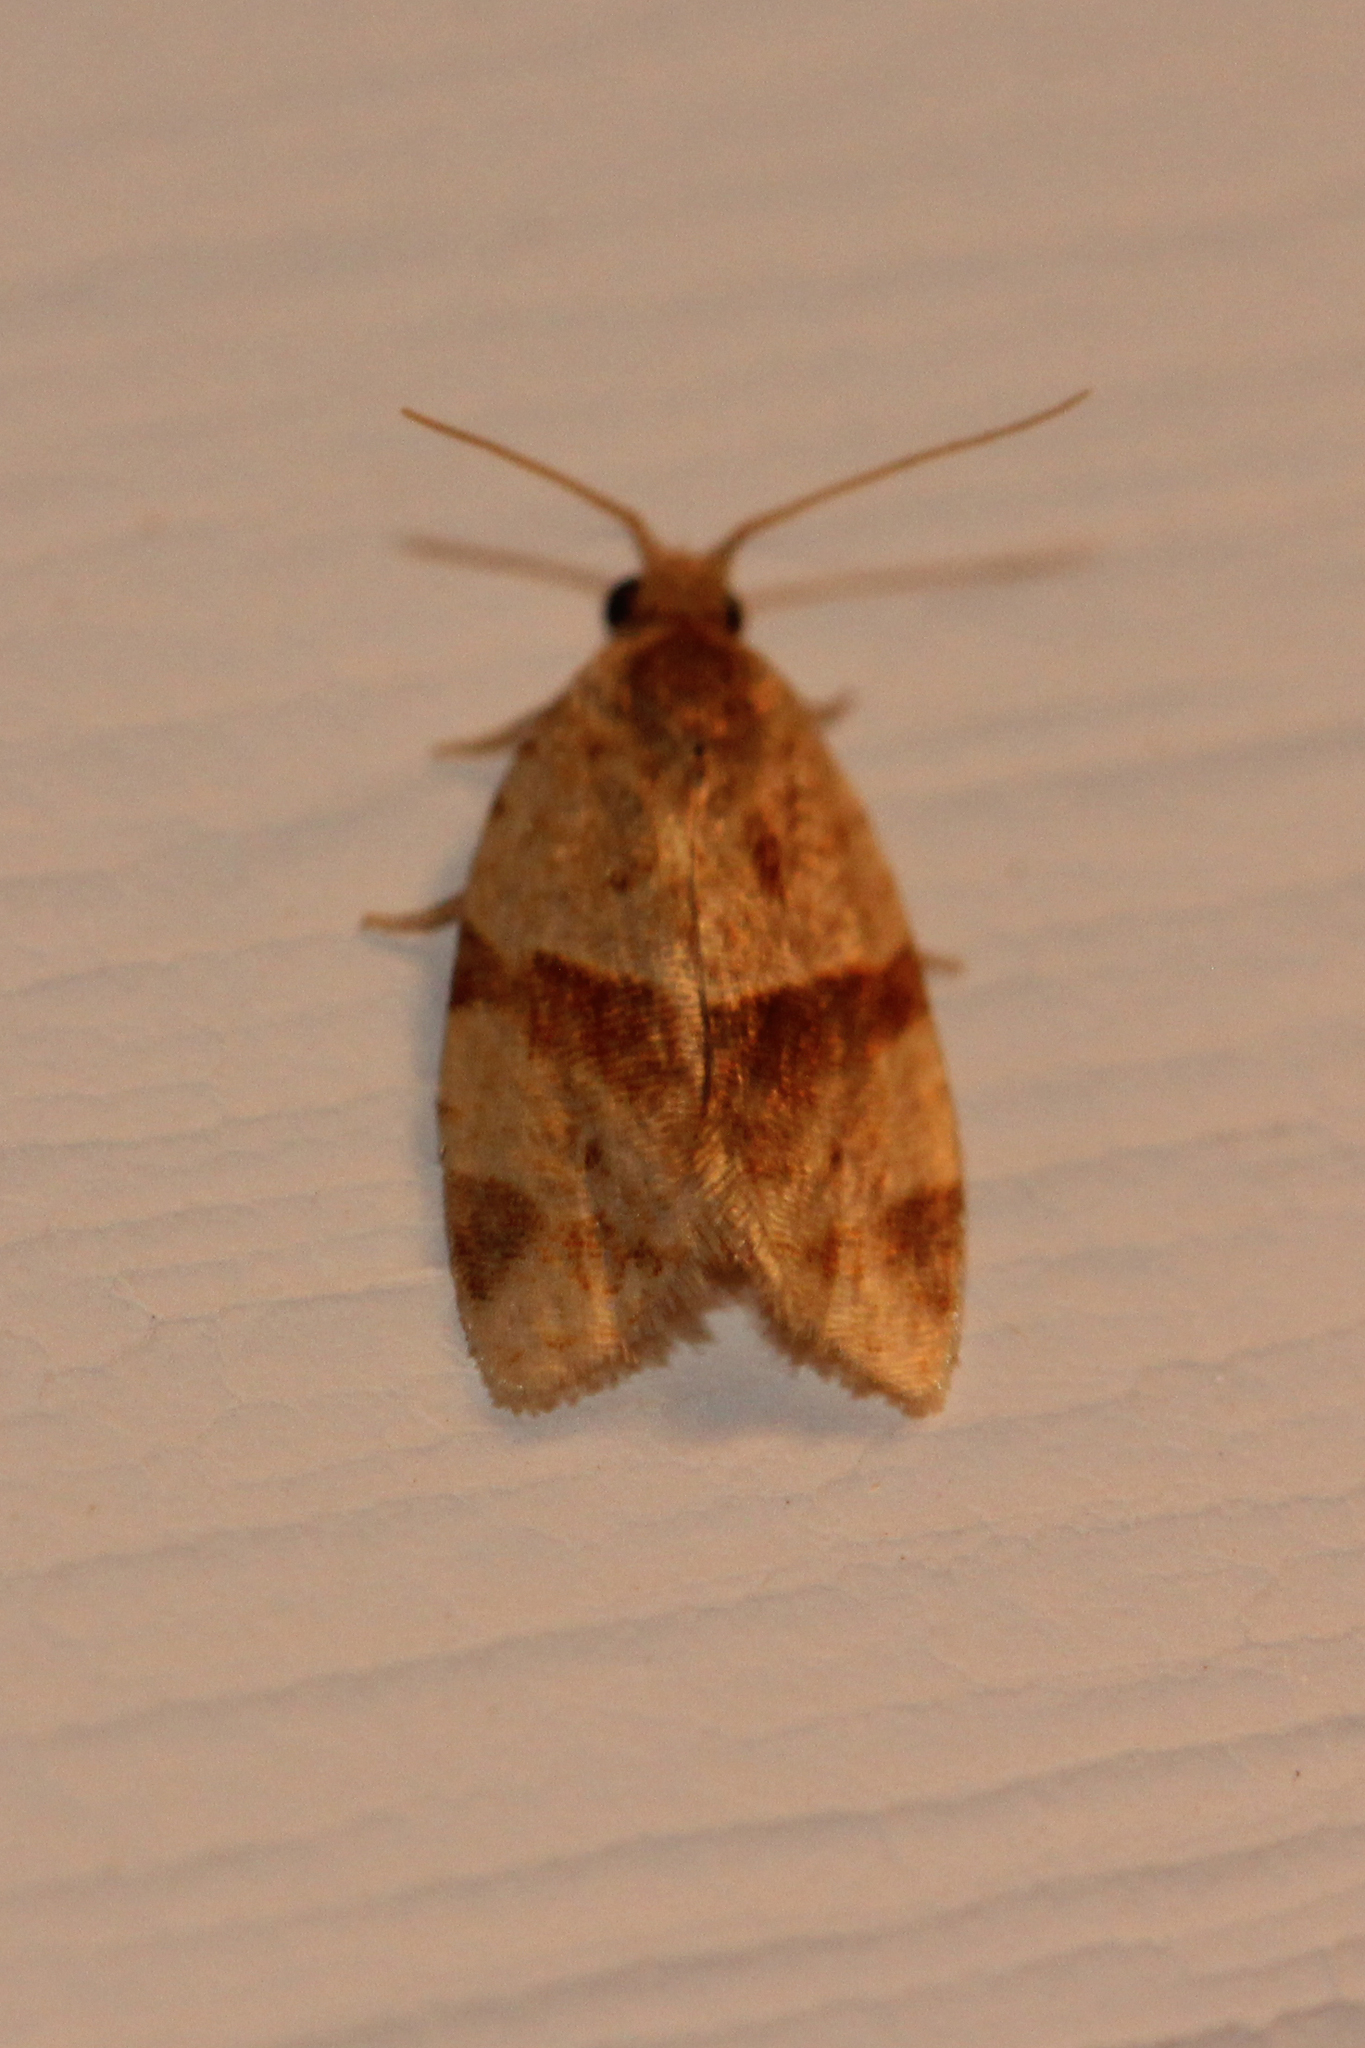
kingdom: Animalia
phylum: Arthropoda
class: Insecta
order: Lepidoptera
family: Tortricidae
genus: Clepsis
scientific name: Clepsis peritana
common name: Garden tortrix
